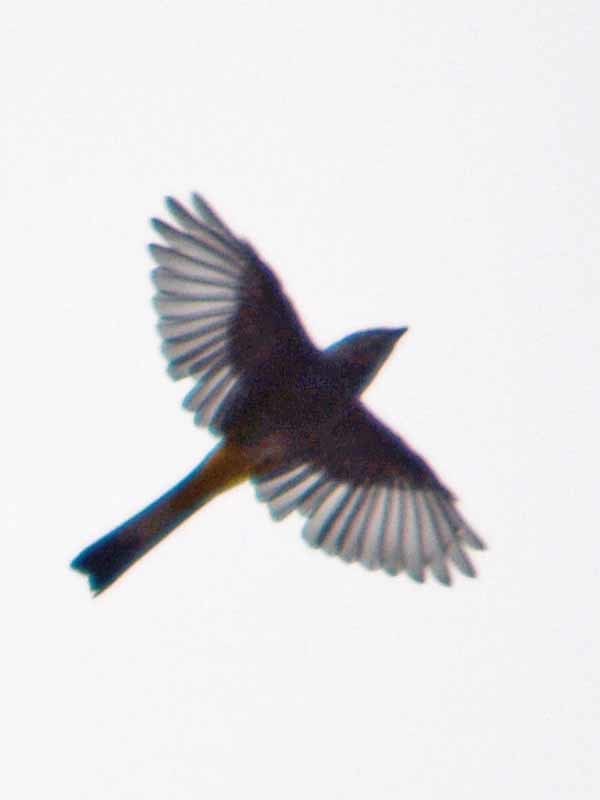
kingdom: Animalia
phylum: Chordata
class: Aves
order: Passeriformes
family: Ptilogonatidae
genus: Ptilogonys
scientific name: Ptilogonys cinereus
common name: Gray silky-flycatcher
